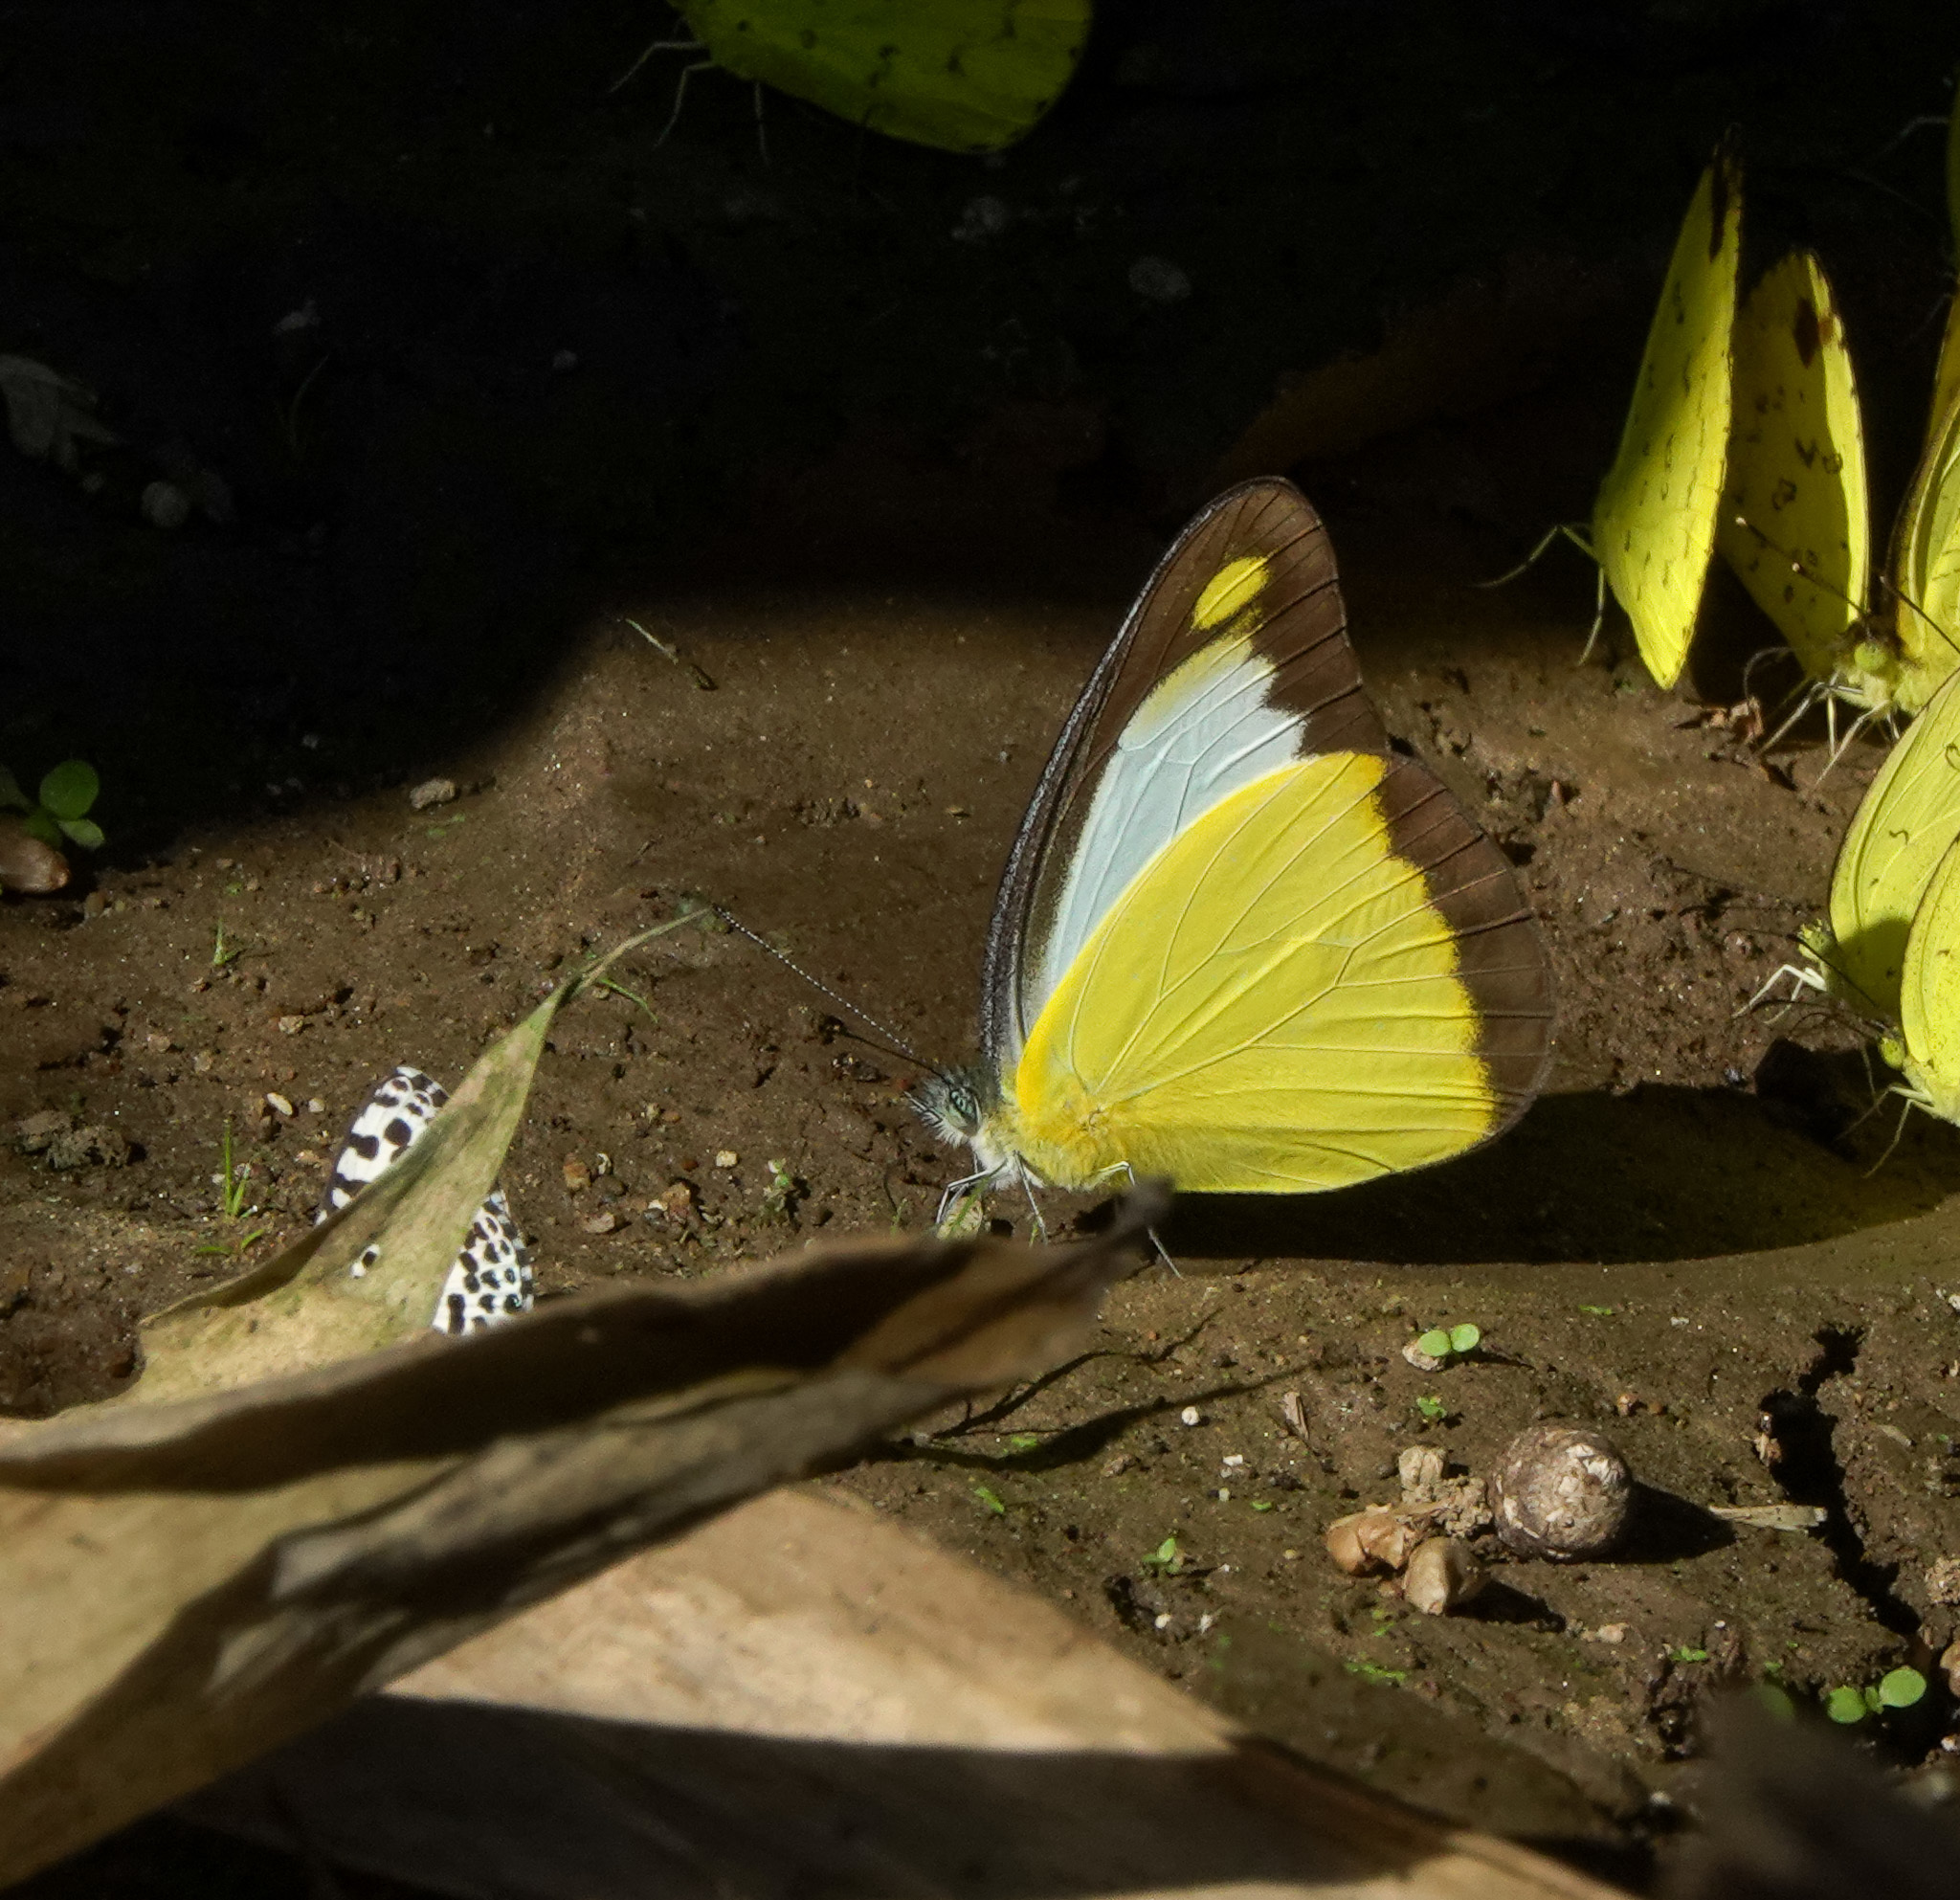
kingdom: Animalia
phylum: Arthropoda
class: Insecta
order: Lepidoptera
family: Pieridae
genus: Appias
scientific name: Appias lyncida
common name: Chocolate albatross
